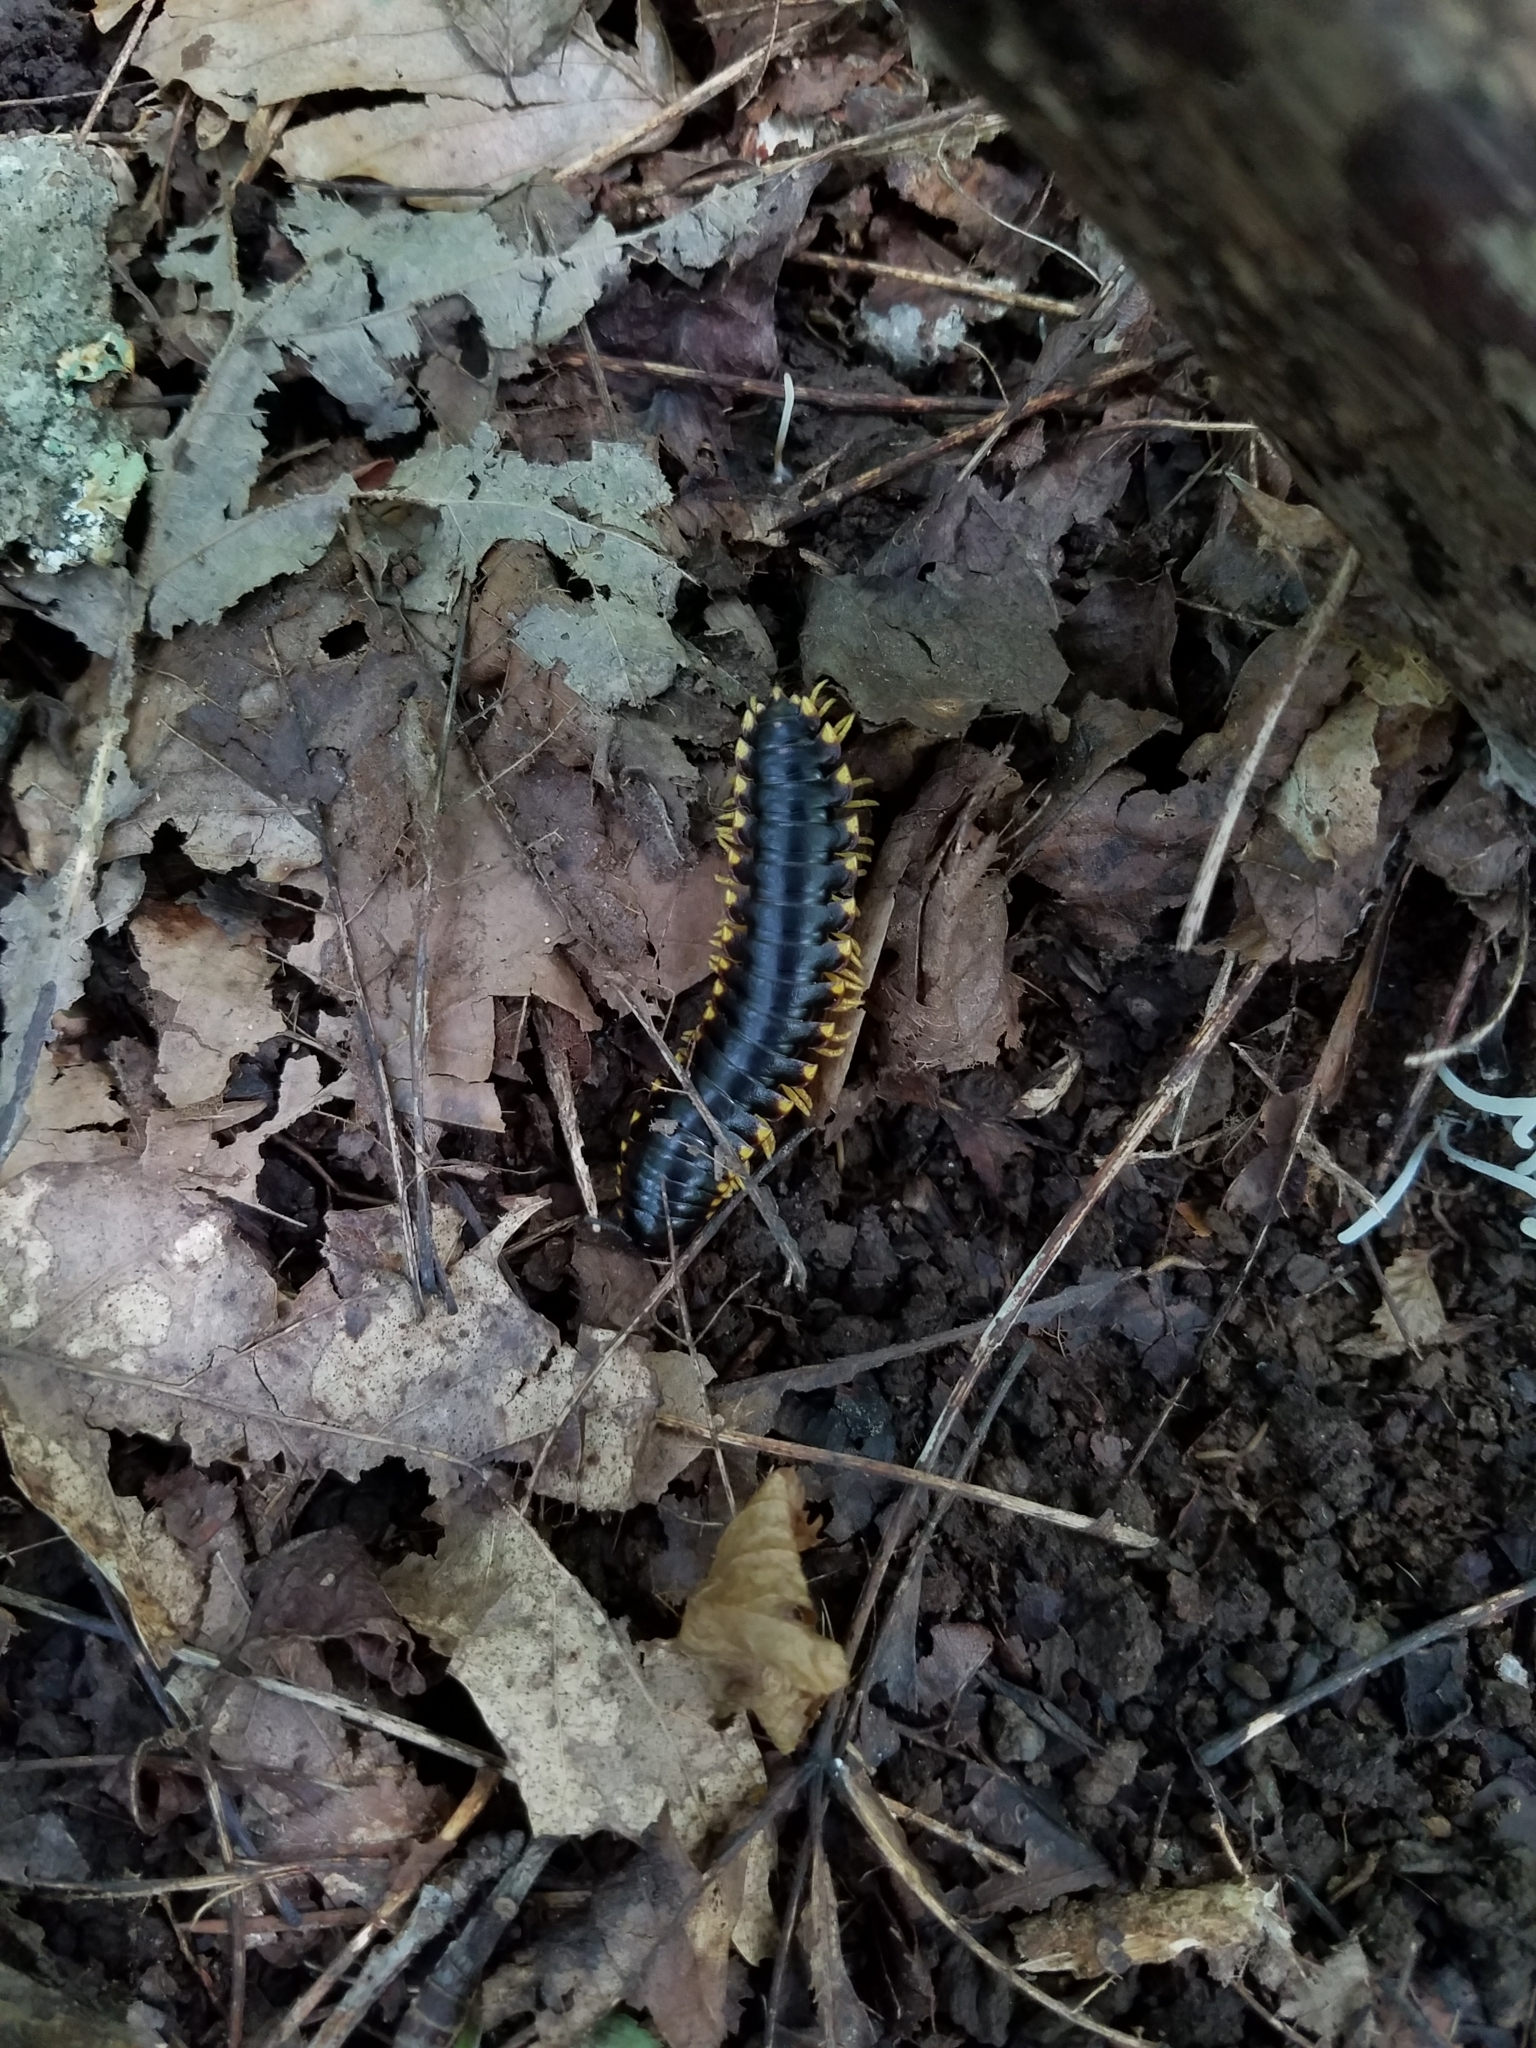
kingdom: Animalia
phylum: Arthropoda
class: Diplopoda
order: Polydesmida
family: Xystodesmidae
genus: Apheloria
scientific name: Apheloria tigana
